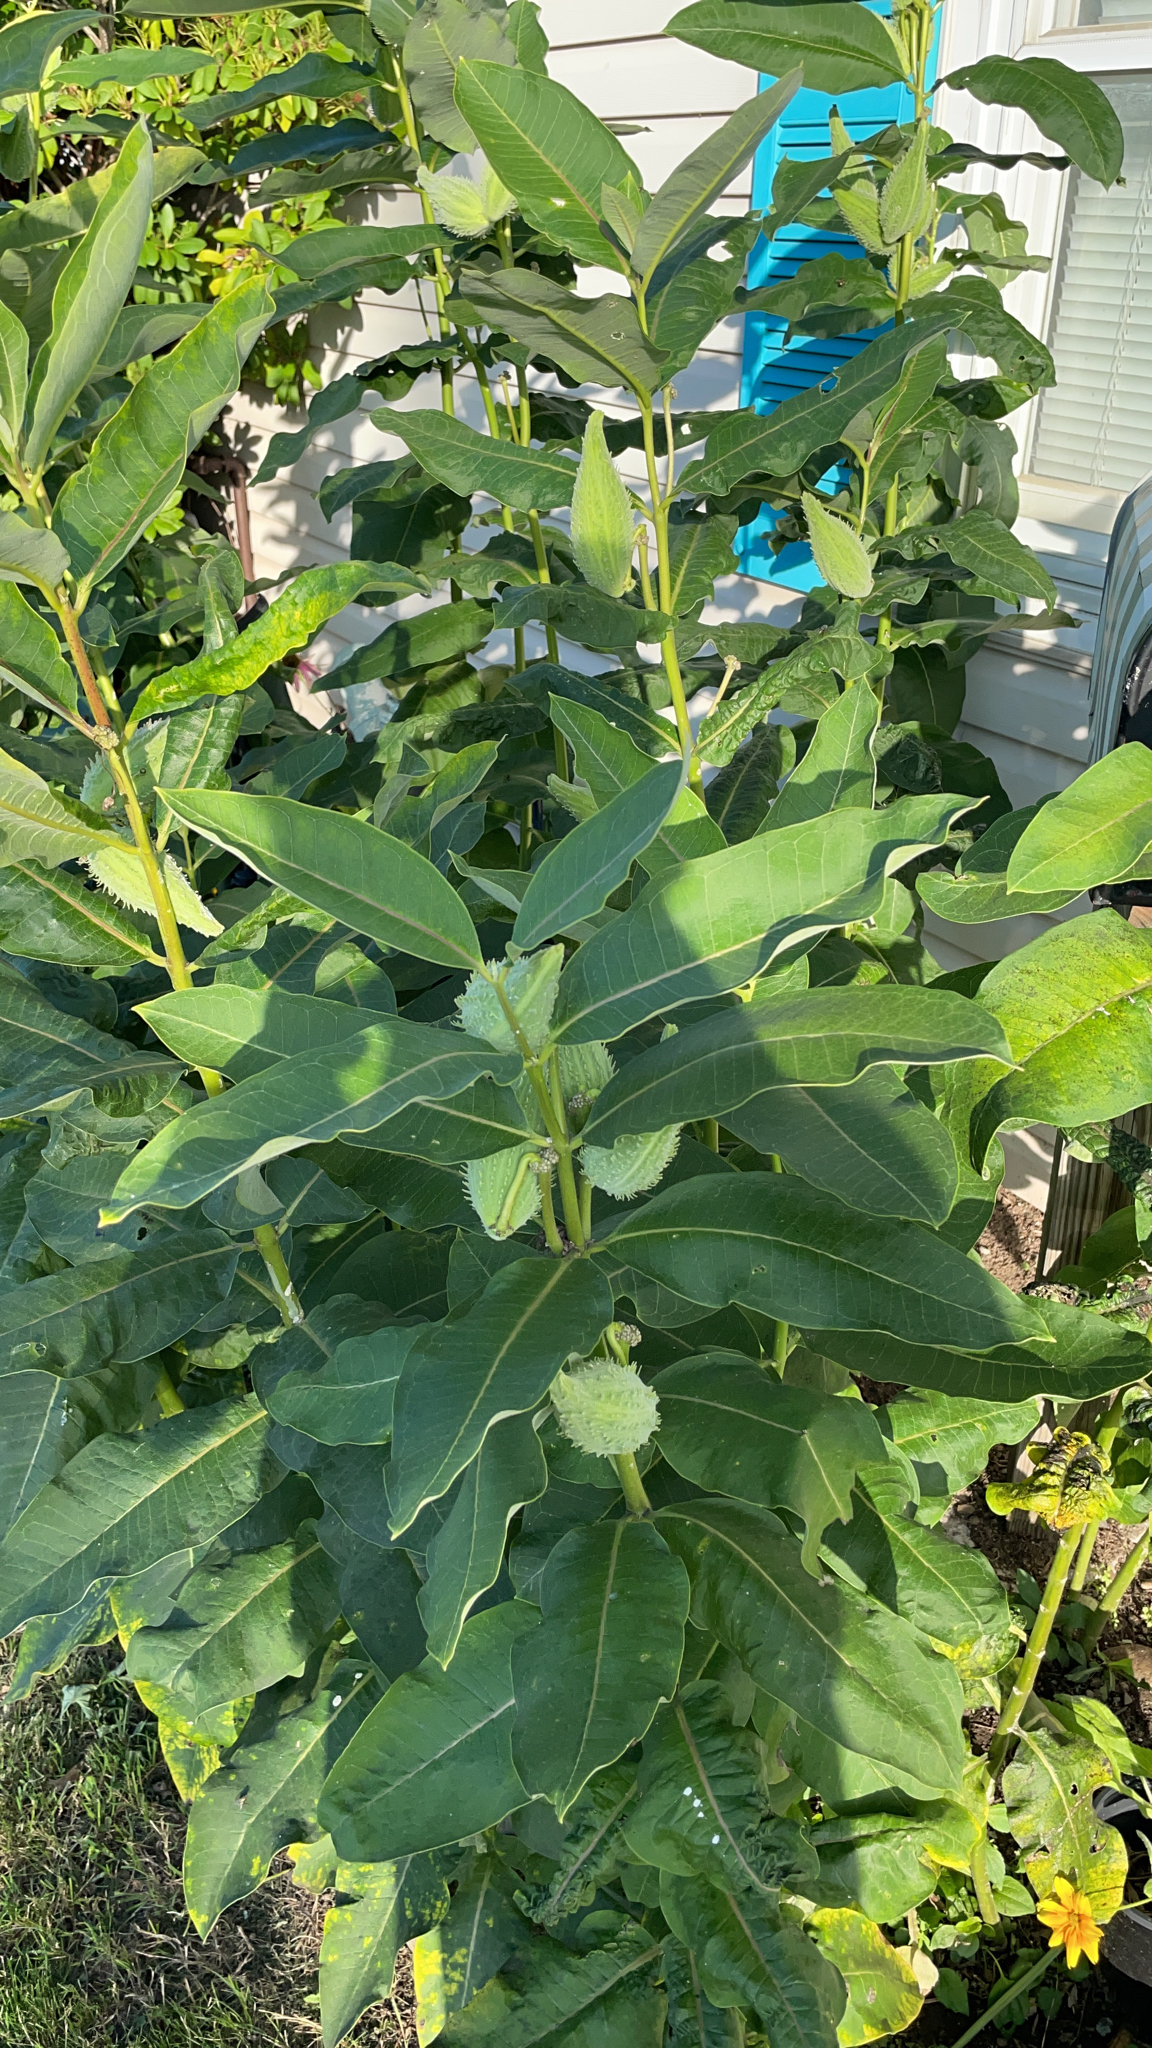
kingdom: Plantae
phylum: Tracheophyta
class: Magnoliopsida
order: Gentianales
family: Apocynaceae
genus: Asclepias
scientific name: Asclepias syriaca
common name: Common milkweed
